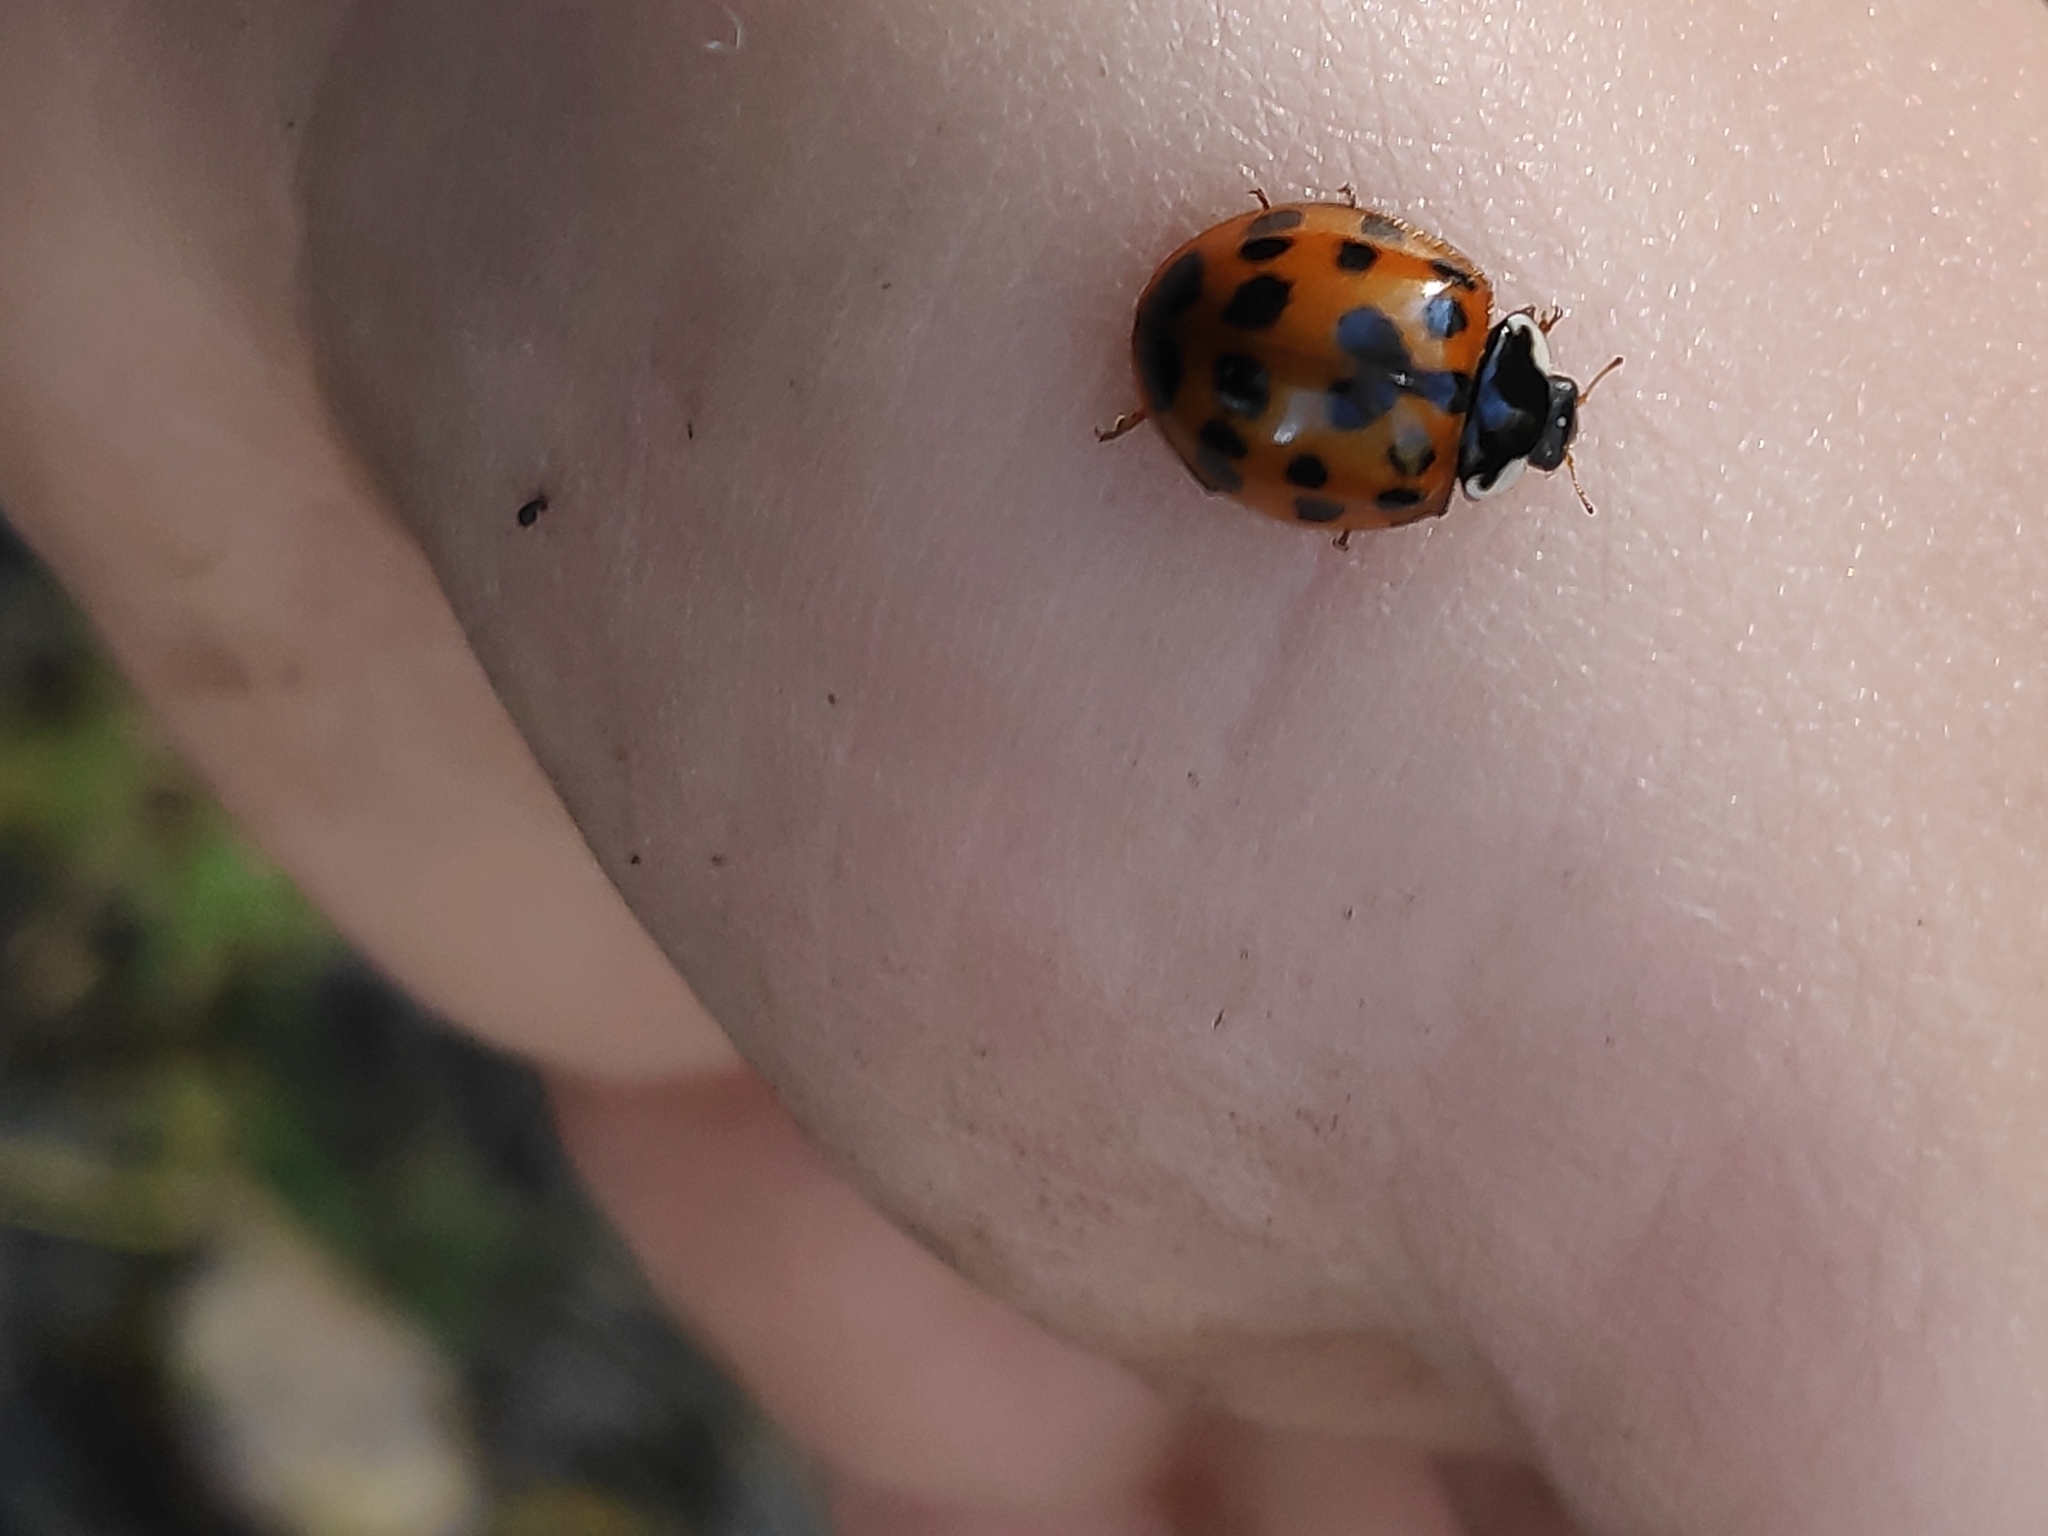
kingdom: Animalia
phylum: Arthropoda
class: Insecta
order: Coleoptera
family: Coccinellidae
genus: Harmonia
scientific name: Harmonia axyridis
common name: Harlequin ladybird
